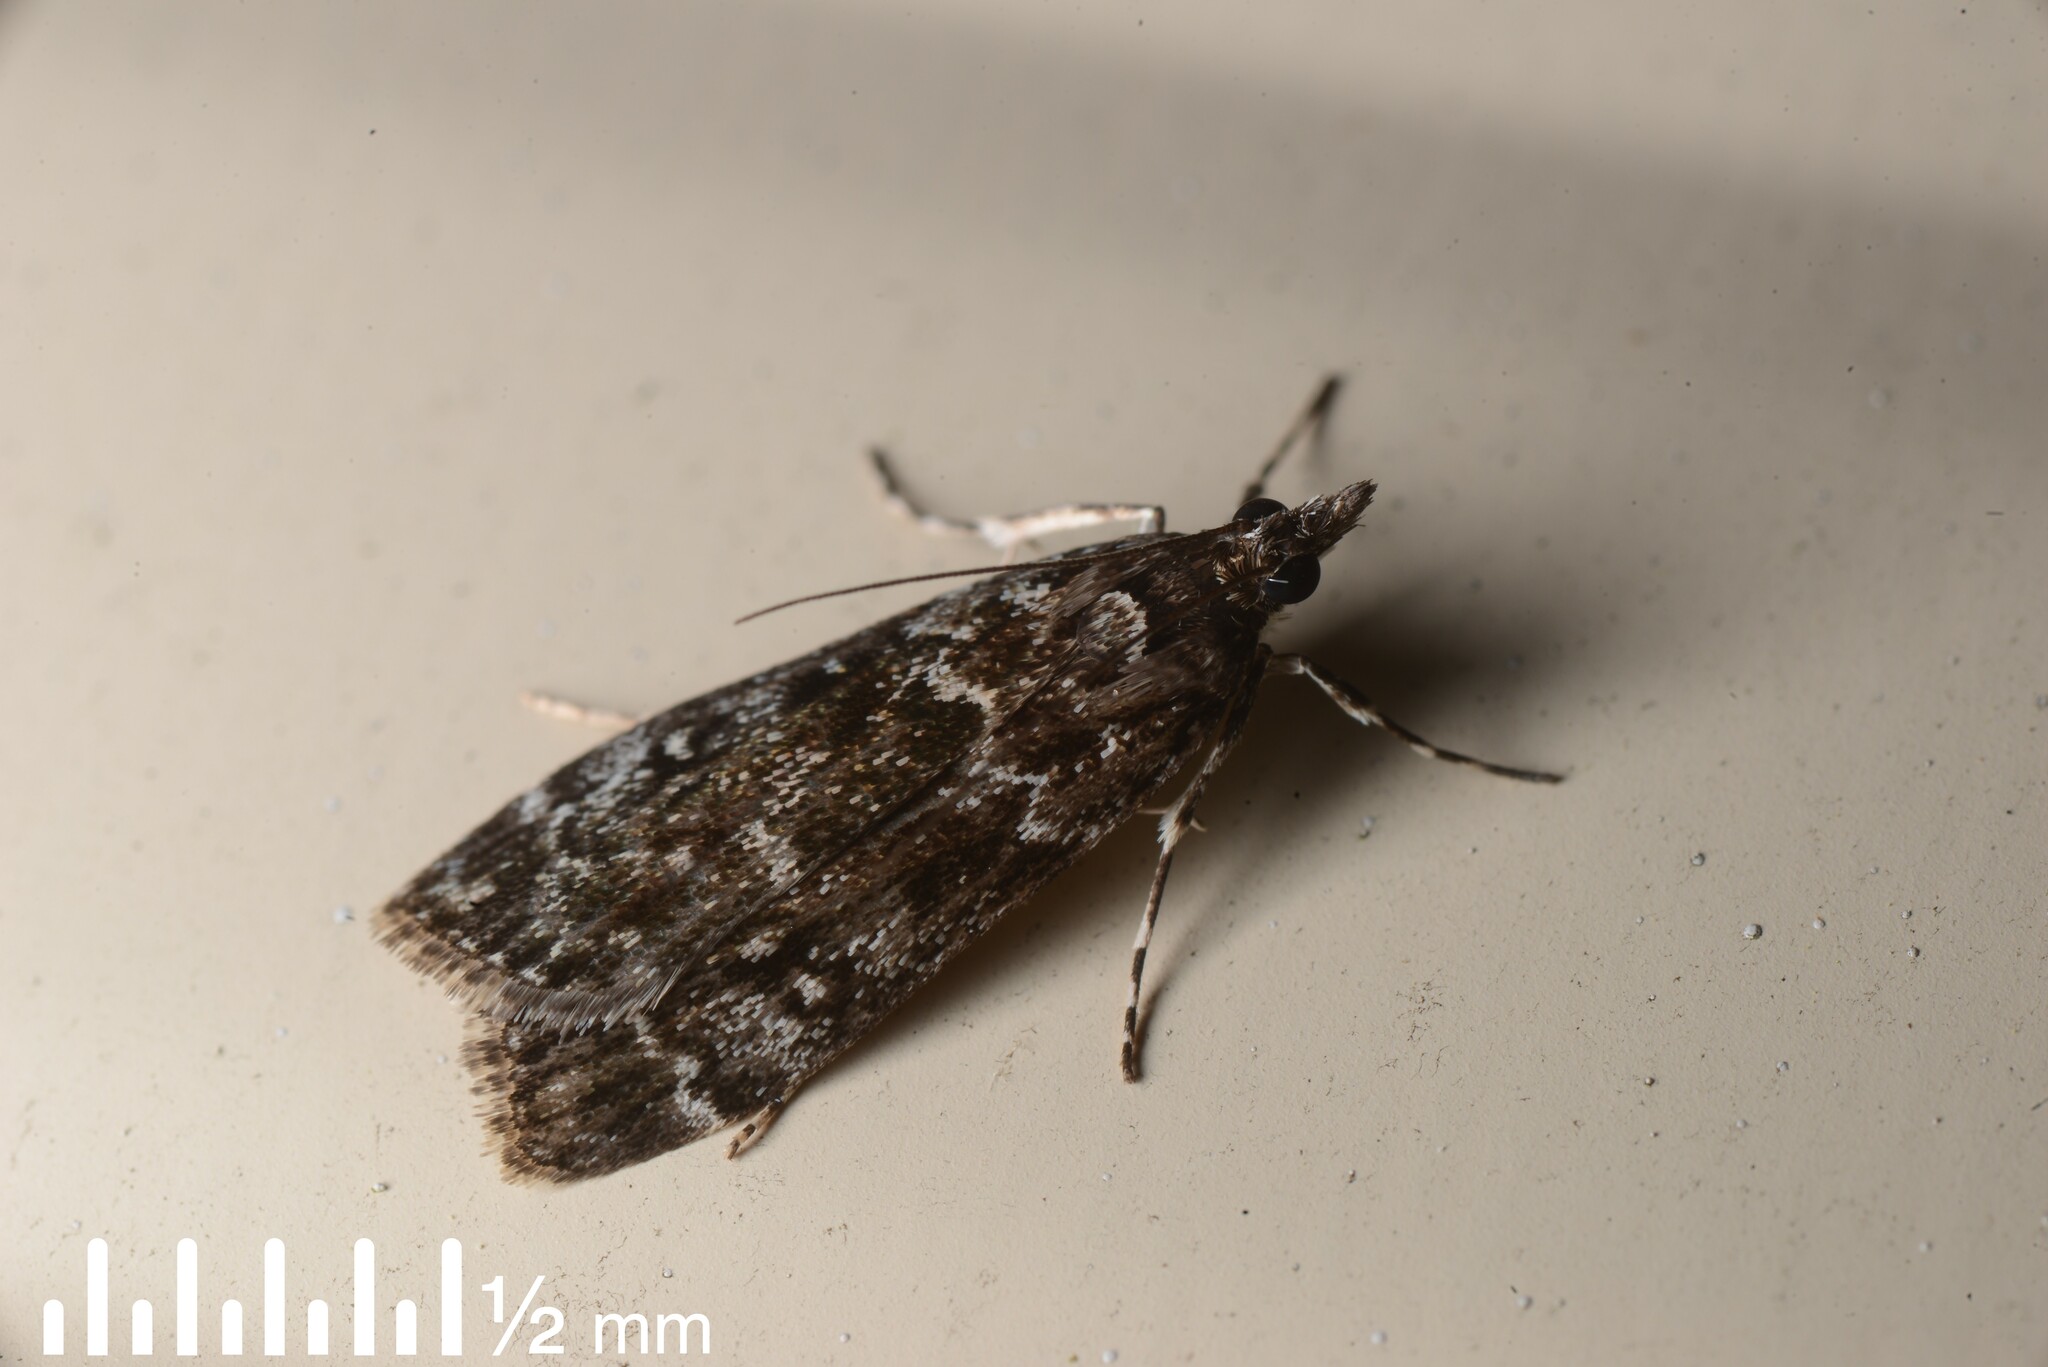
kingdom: Animalia
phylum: Arthropoda
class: Insecta
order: Lepidoptera
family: Crambidae
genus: Eudonia
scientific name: Eudonia philerga
